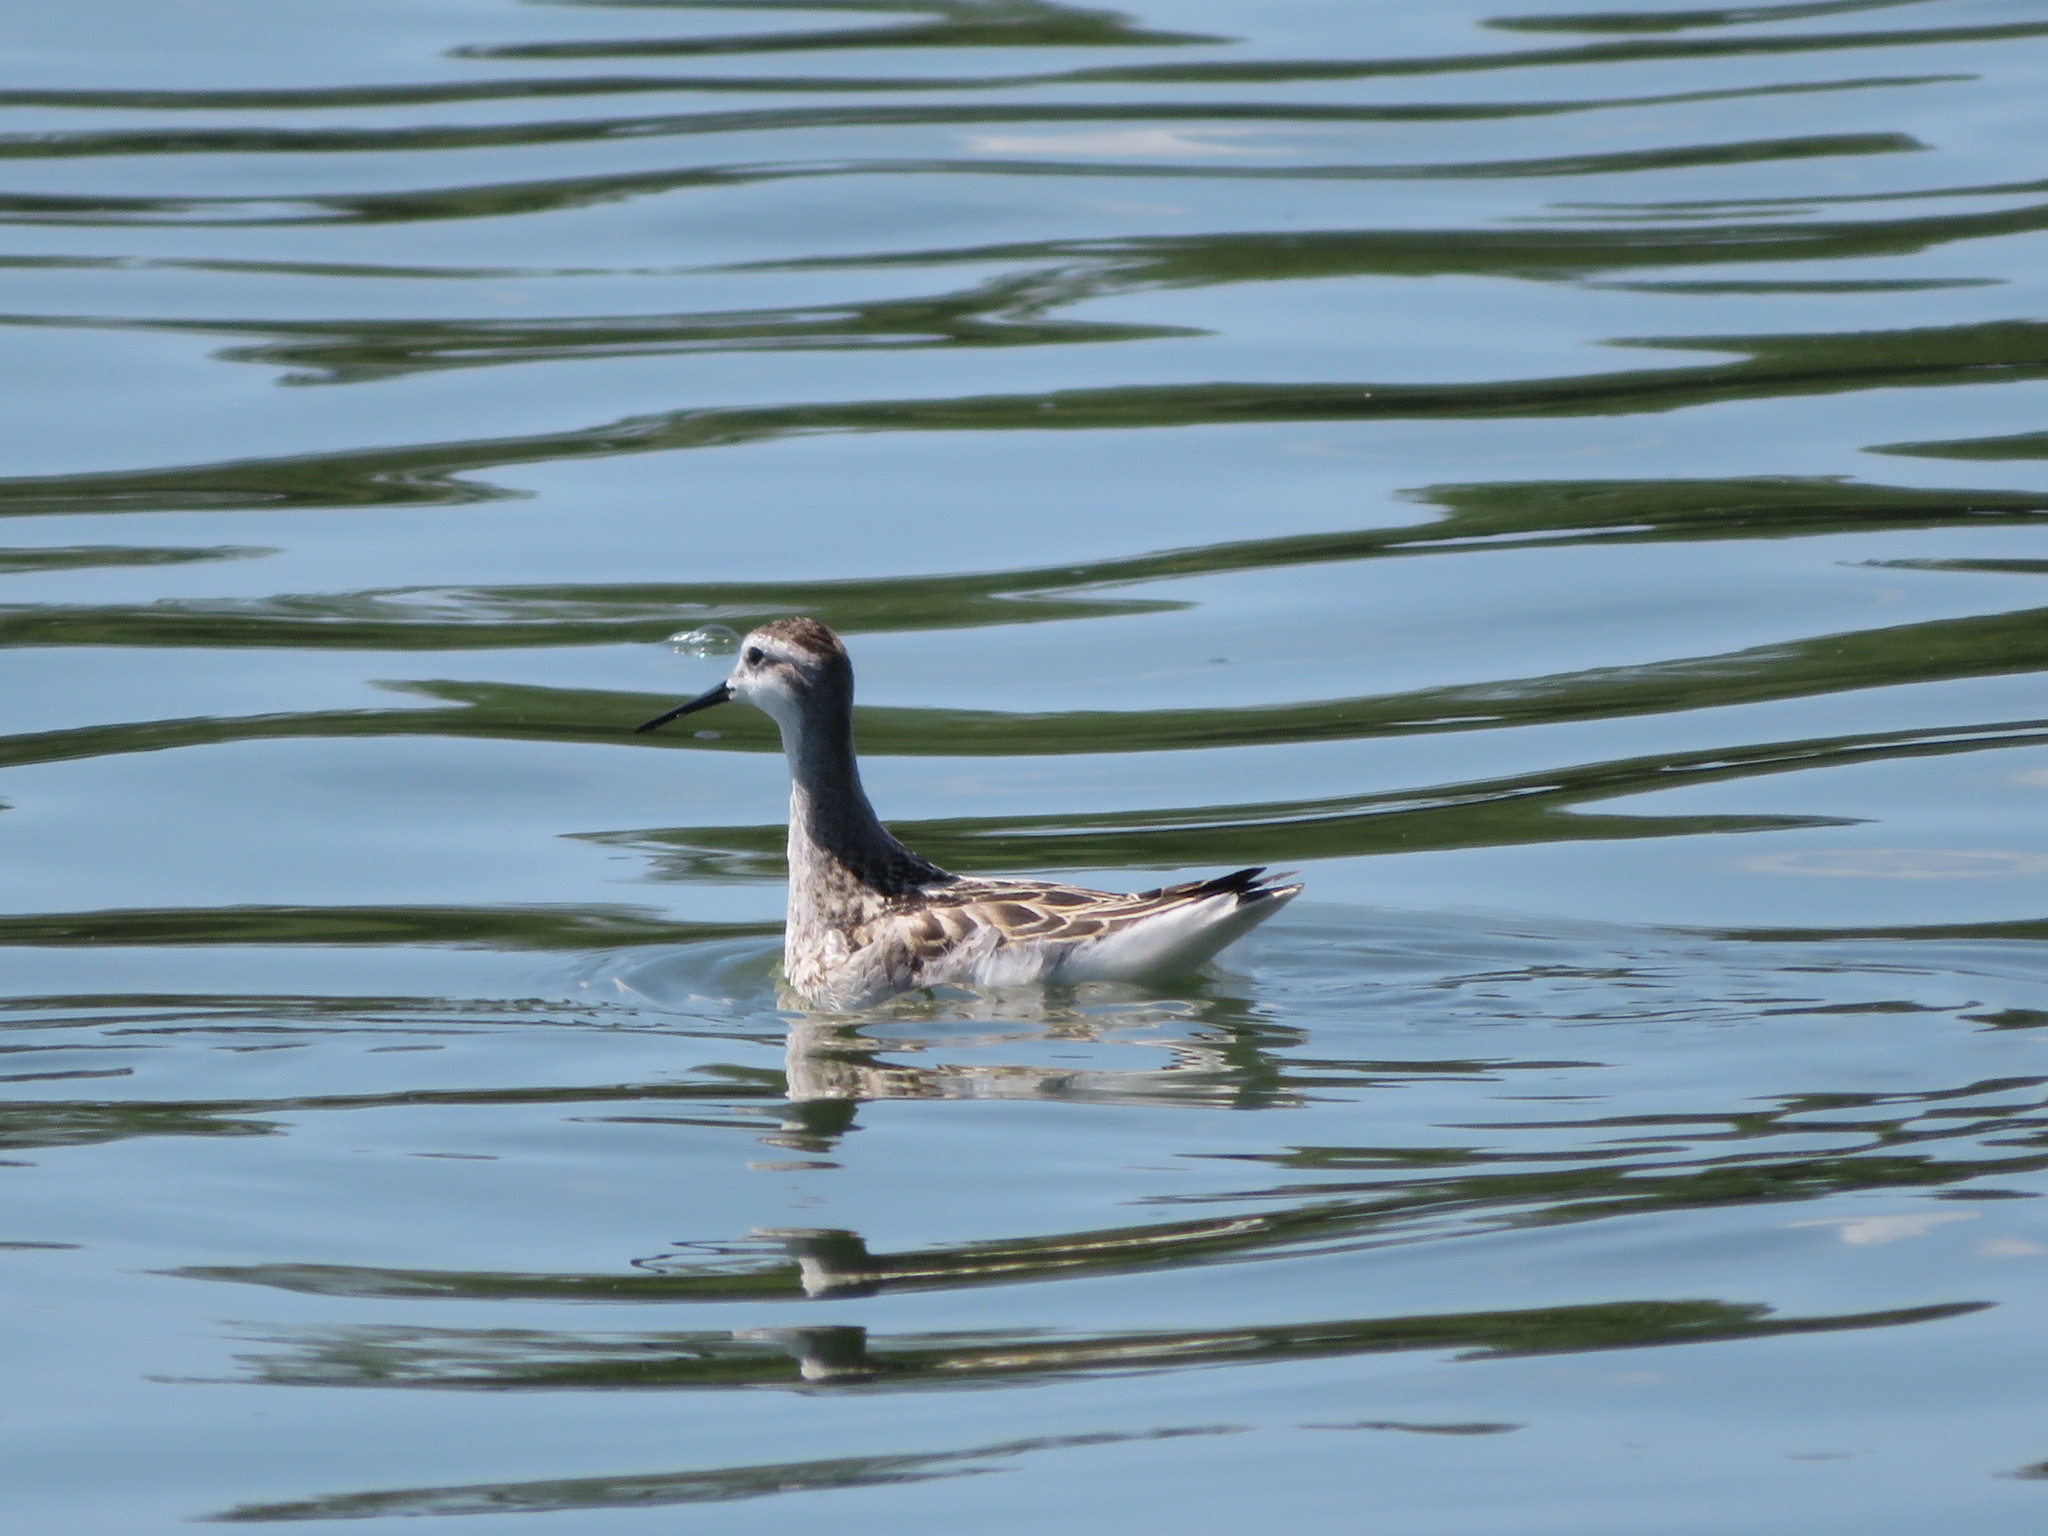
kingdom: Animalia
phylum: Chordata
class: Aves
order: Charadriiformes
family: Scolopacidae
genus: Phalaropus
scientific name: Phalaropus tricolor
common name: Wilson's phalarope
